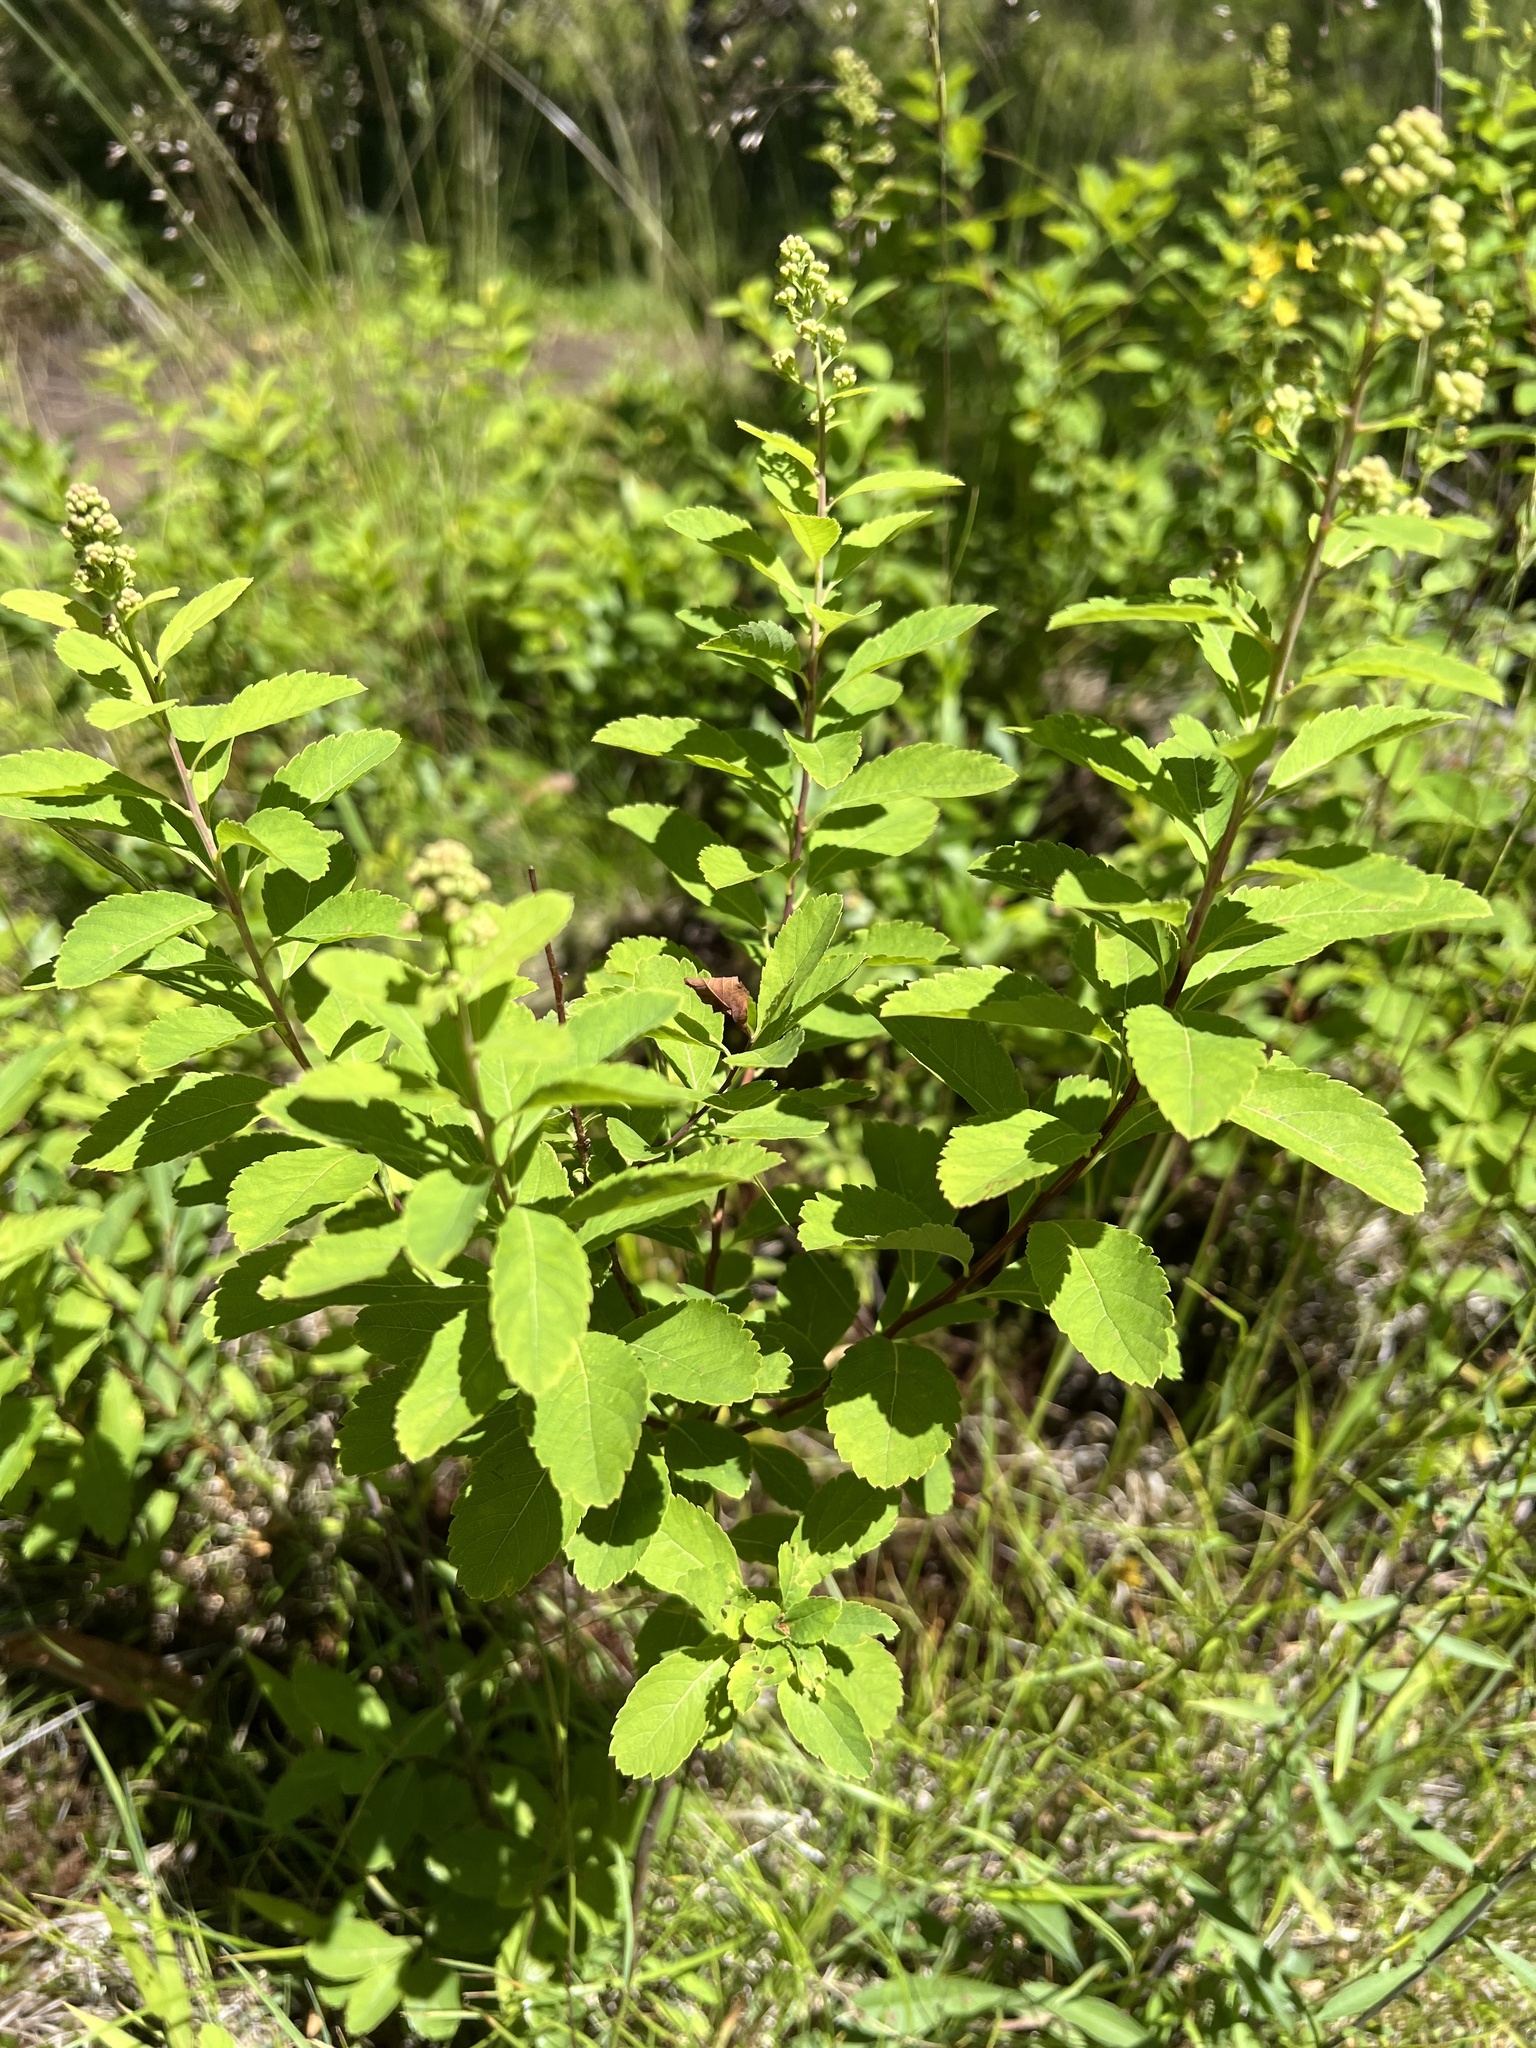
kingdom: Plantae
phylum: Tracheophyta
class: Magnoliopsida
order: Rosales
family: Rosaceae
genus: Spiraea
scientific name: Spiraea alba
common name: Pale bridewort
